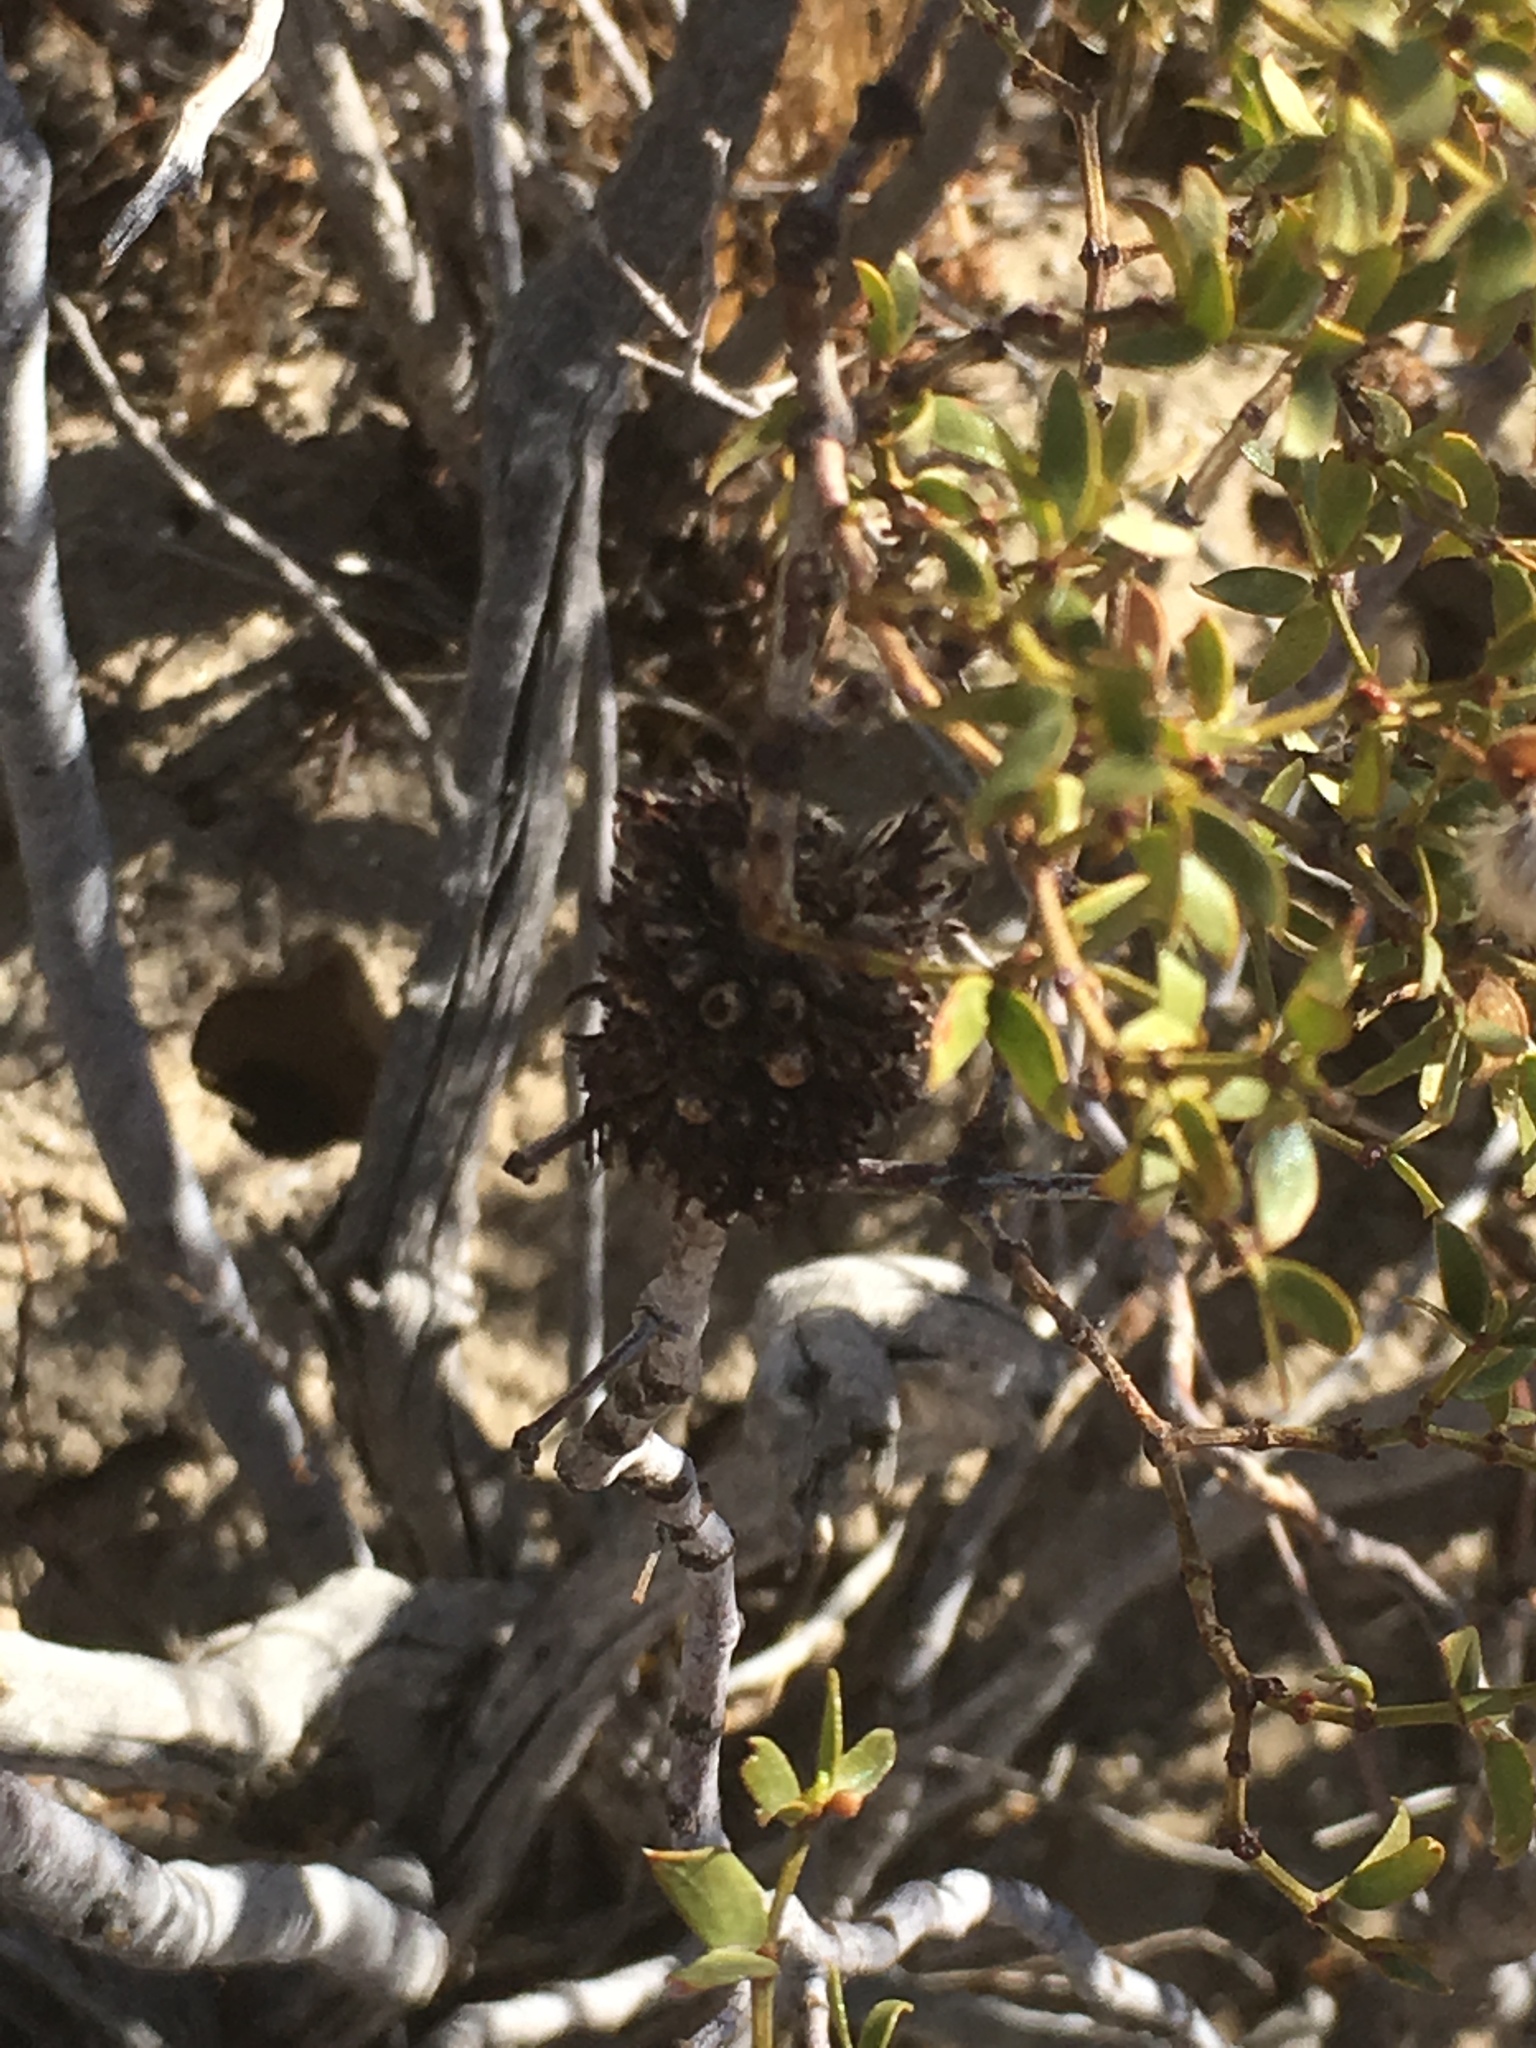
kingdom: Animalia
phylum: Arthropoda
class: Insecta
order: Diptera
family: Cecidomyiidae
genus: Asphondylia
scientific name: Asphondylia auripila
